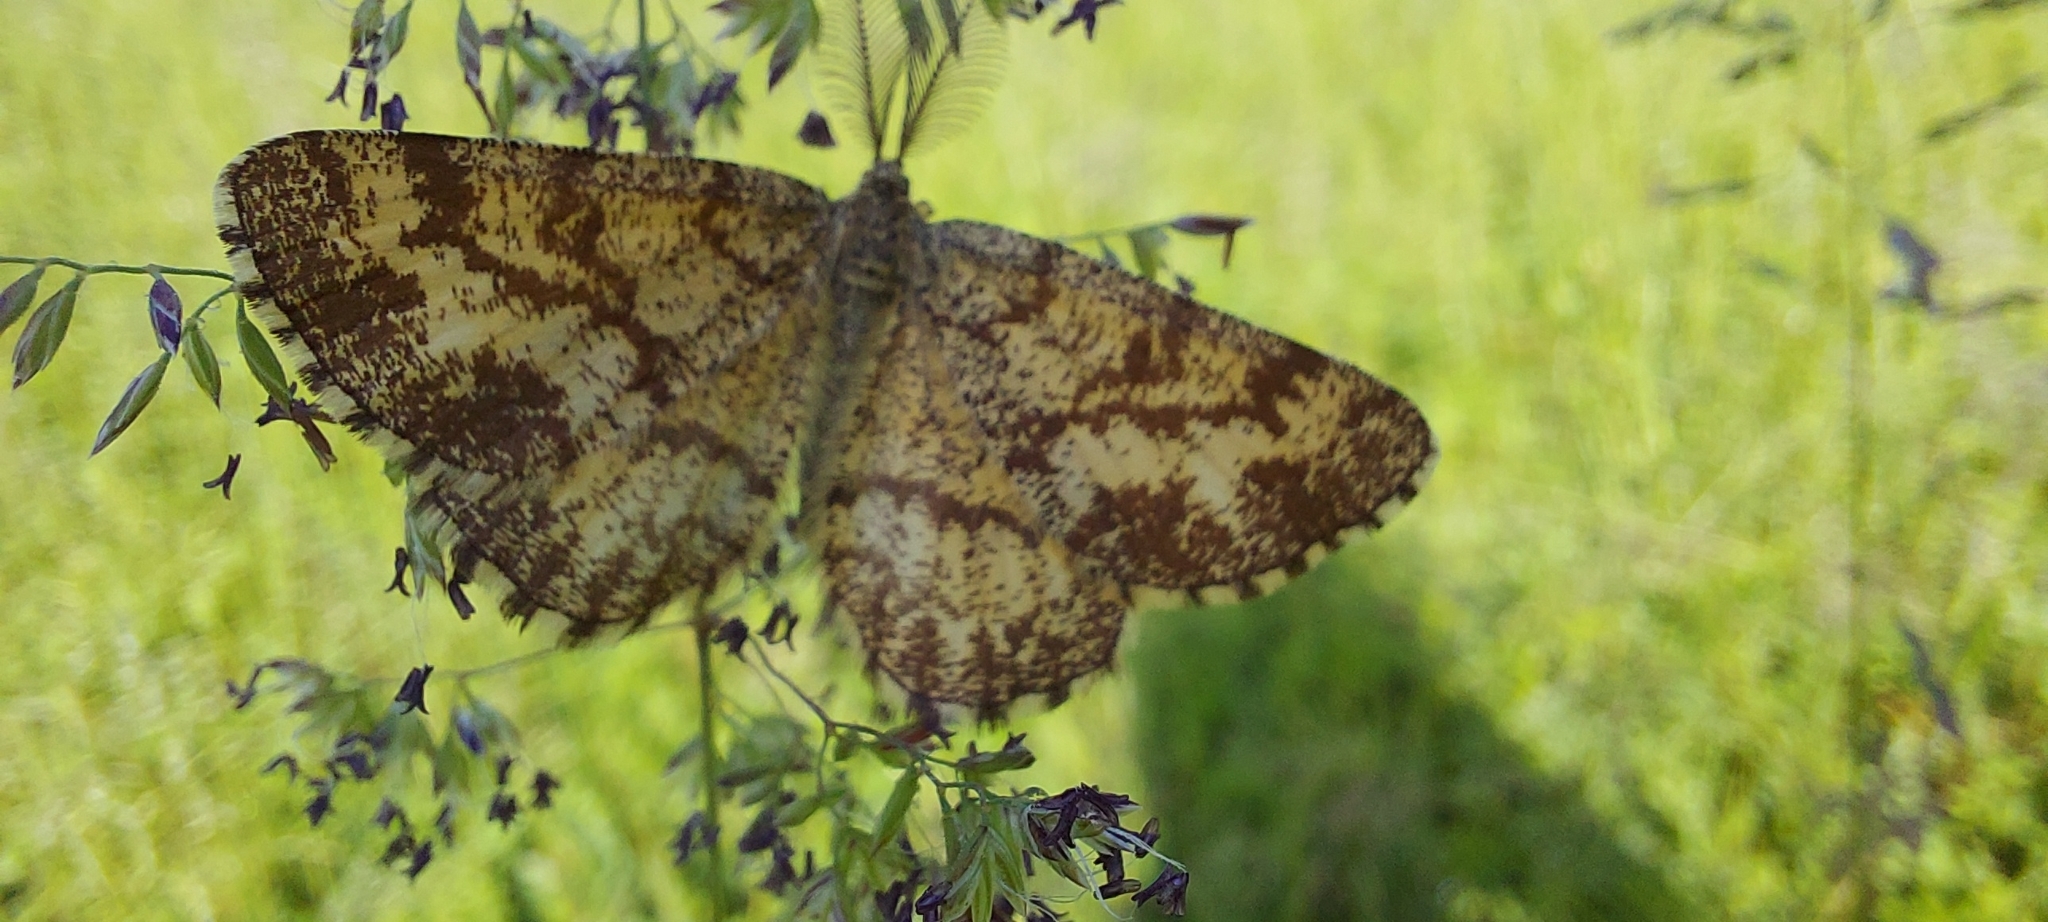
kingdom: Animalia
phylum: Arthropoda
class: Insecta
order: Lepidoptera
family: Geometridae
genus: Ematurga
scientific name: Ematurga atomaria
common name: Common heath
